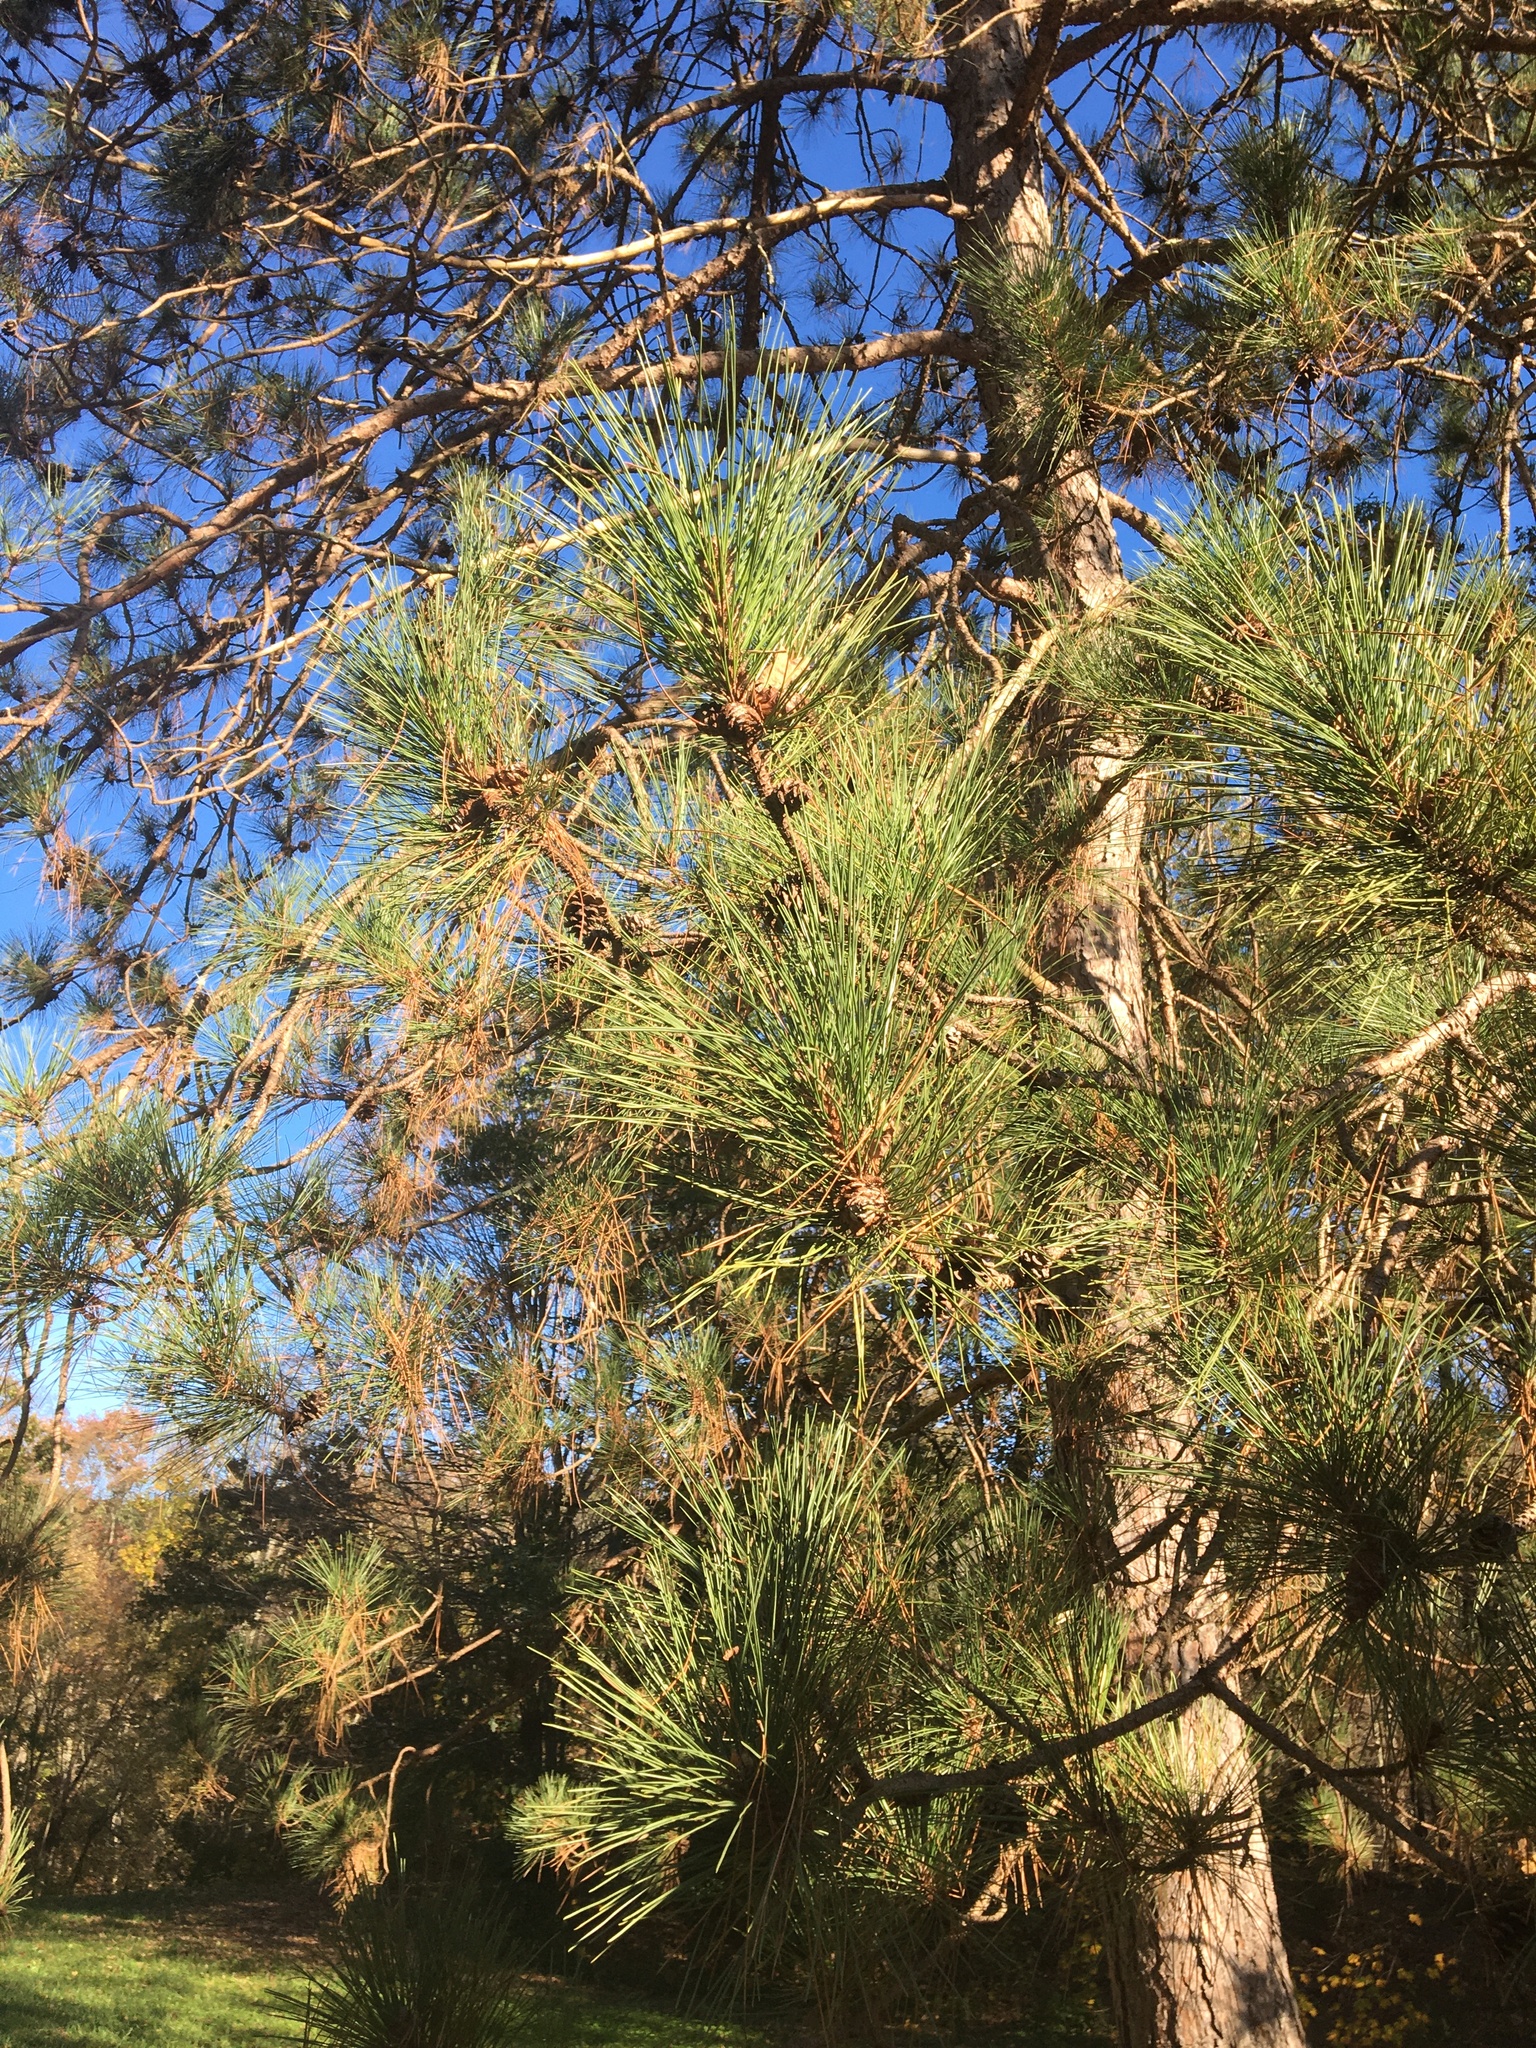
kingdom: Plantae
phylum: Tracheophyta
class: Pinopsida
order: Pinales
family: Pinaceae
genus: Pinus
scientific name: Pinus resinosa
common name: Norway pine
